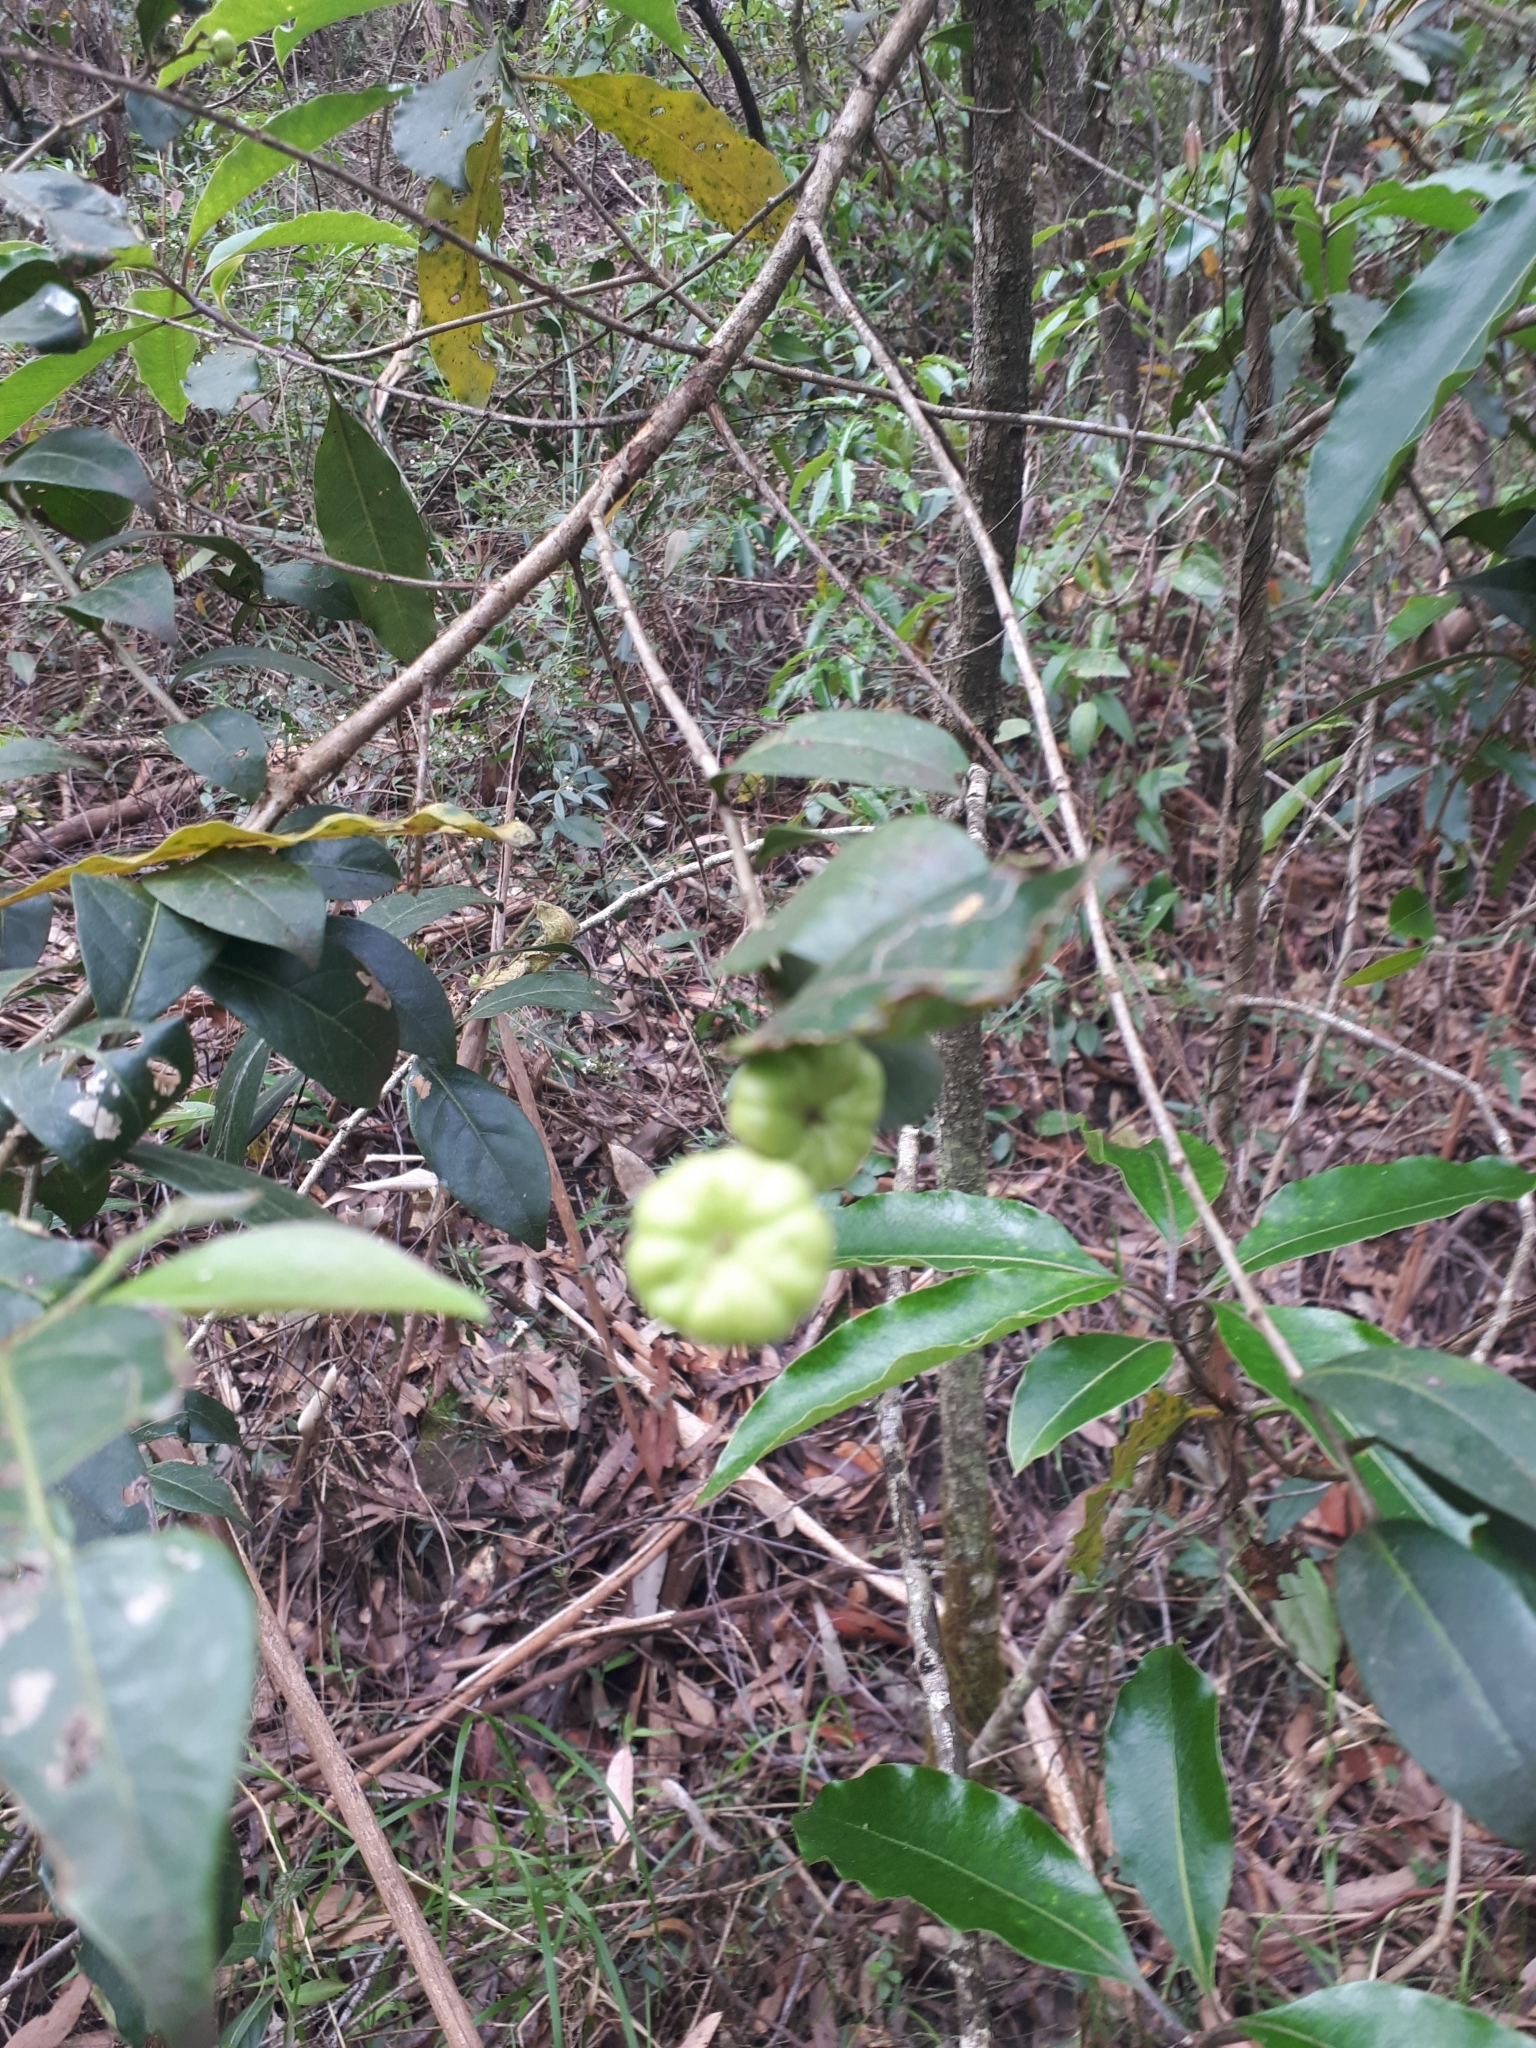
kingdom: Plantae
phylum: Tracheophyta
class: Magnoliopsida
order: Malpighiales
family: Phyllanthaceae
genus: Glochidion
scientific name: Glochidion ferdinandi
